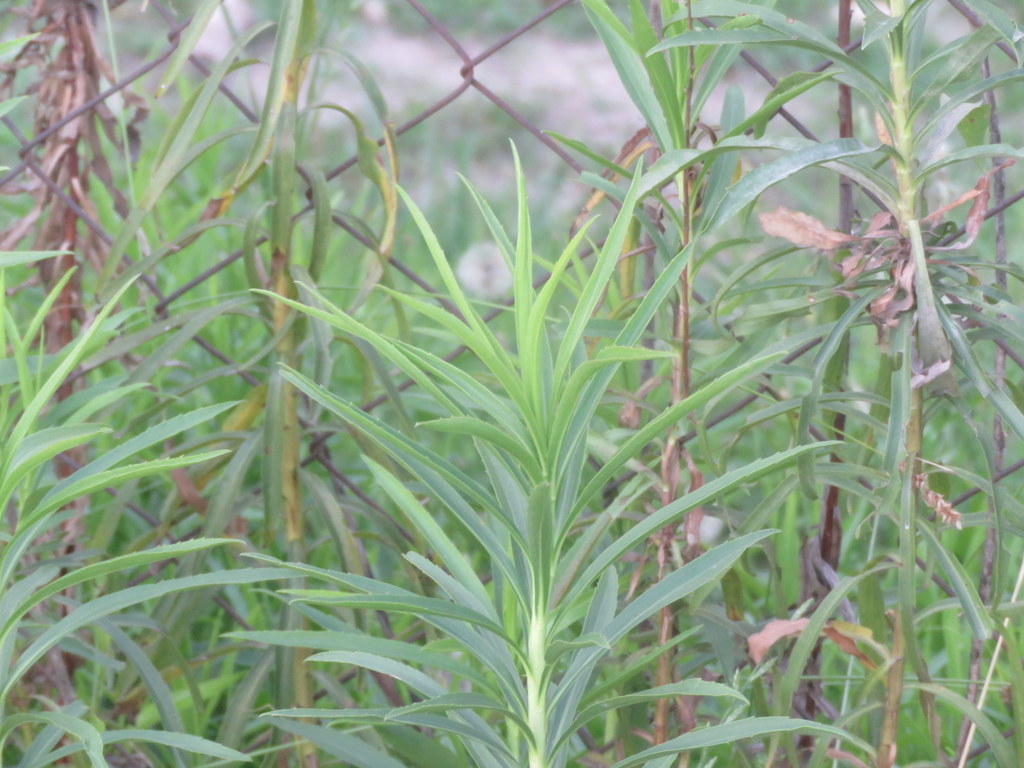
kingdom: Plantae
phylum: Tracheophyta
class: Magnoliopsida
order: Asterales
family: Asteraceae
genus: Solidago
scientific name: Solidago chilensis
